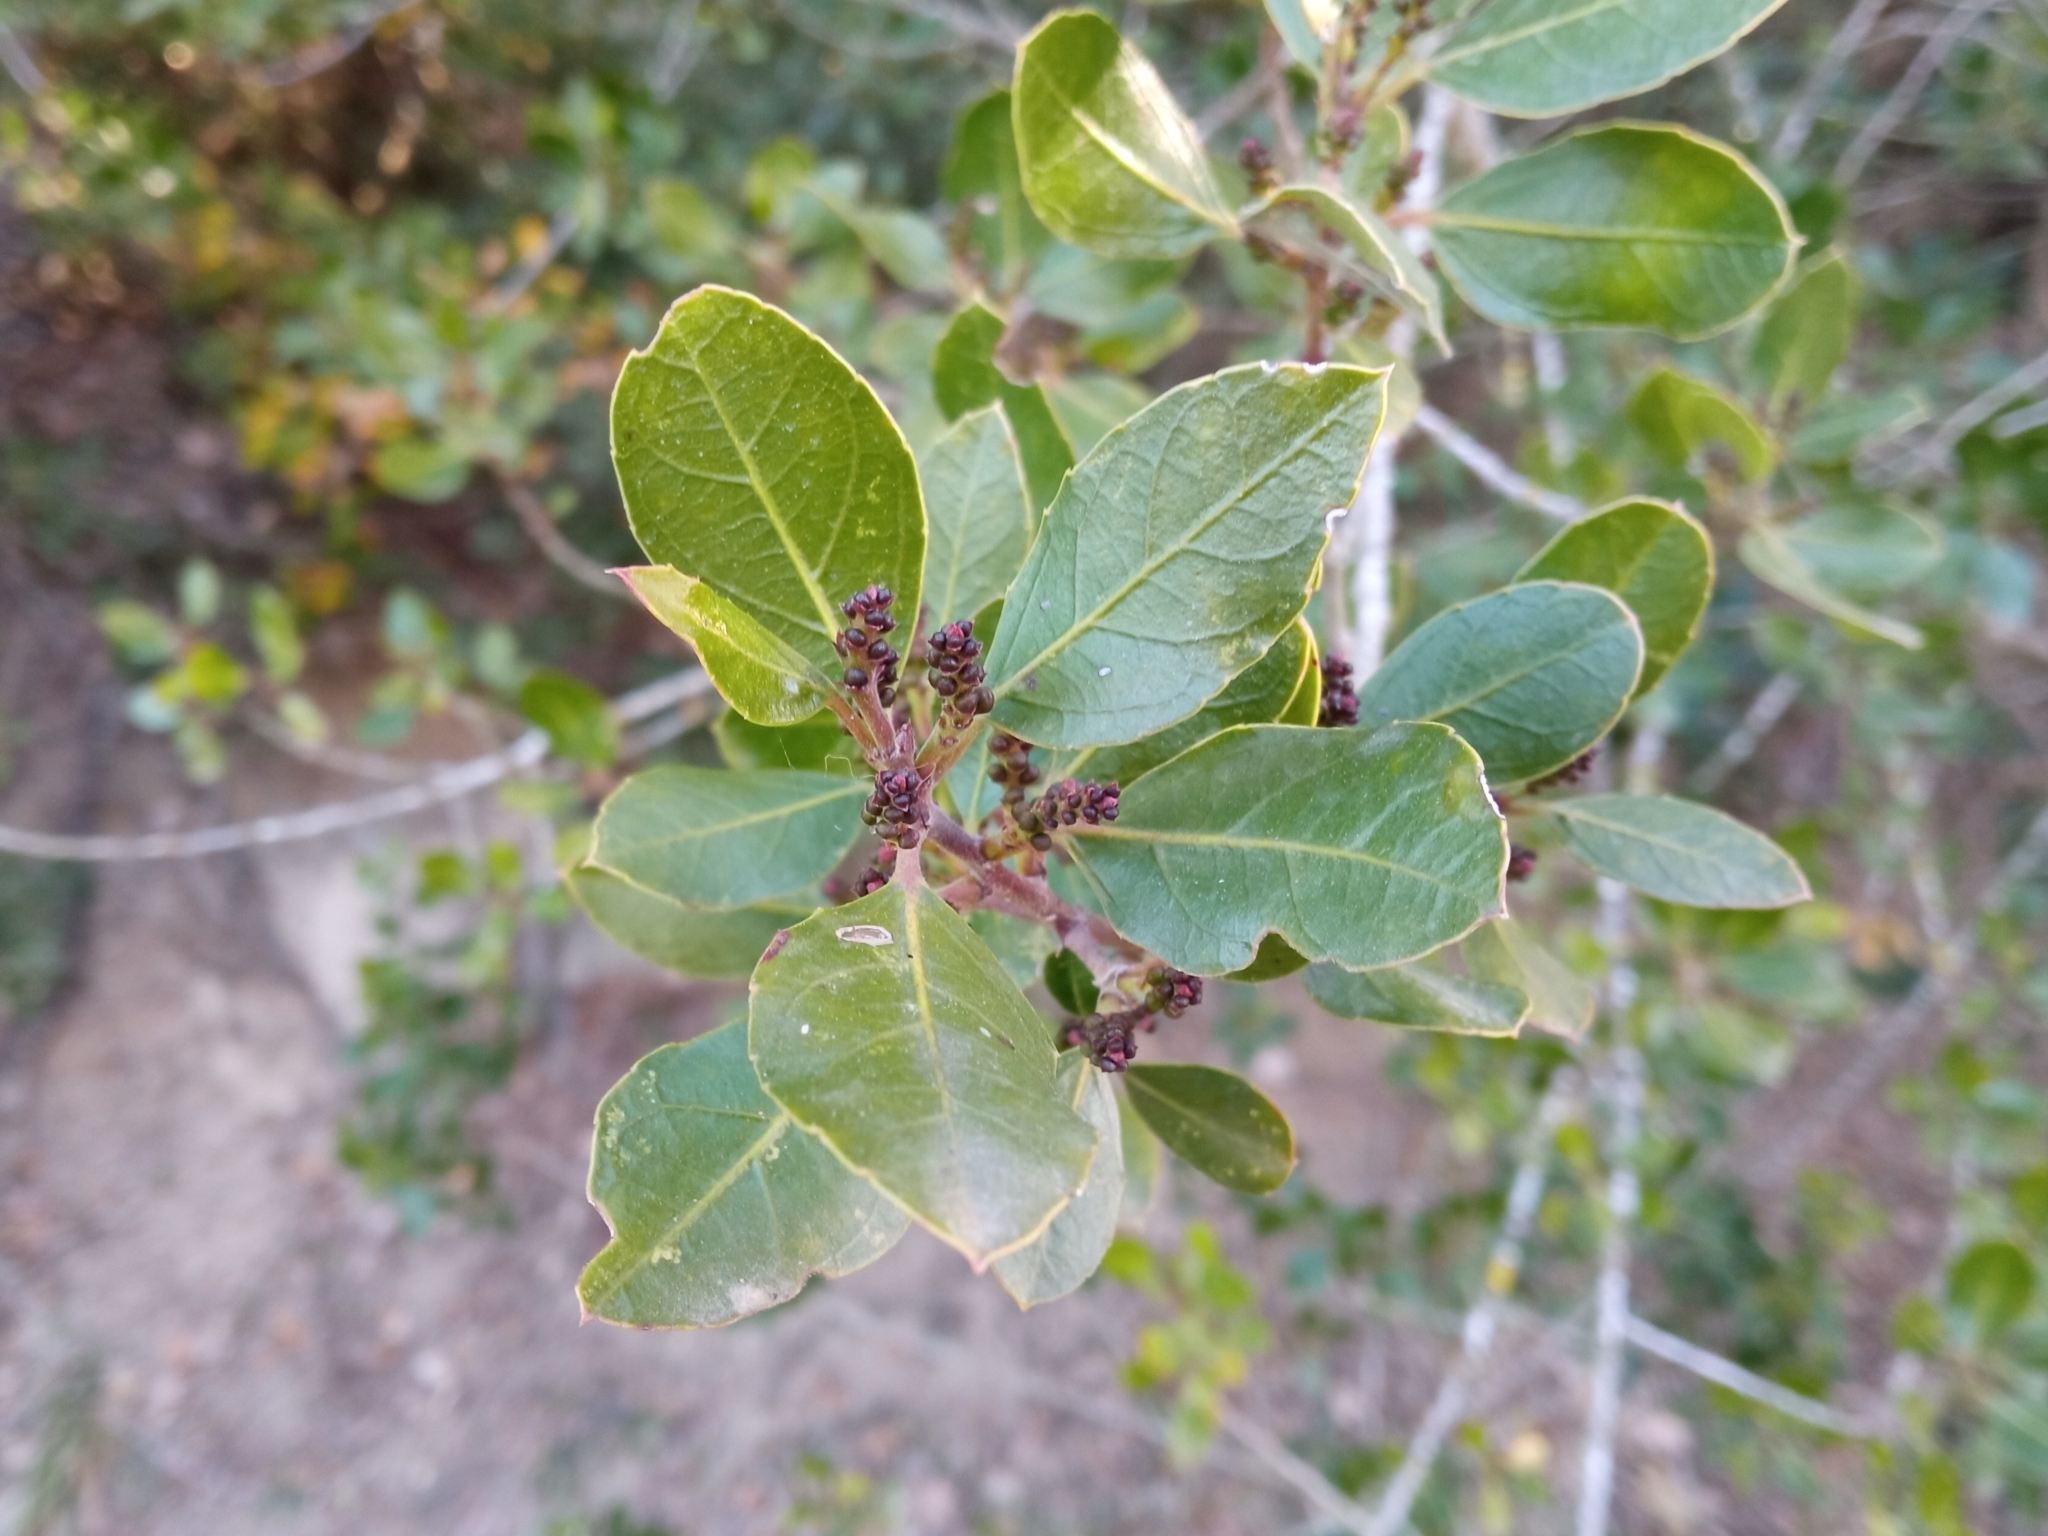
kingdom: Plantae
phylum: Tracheophyta
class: Magnoliopsida
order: Rosales
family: Rhamnaceae
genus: Rhamnus
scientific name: Rhamnus alaternus
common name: Mediterranean buckthorn
